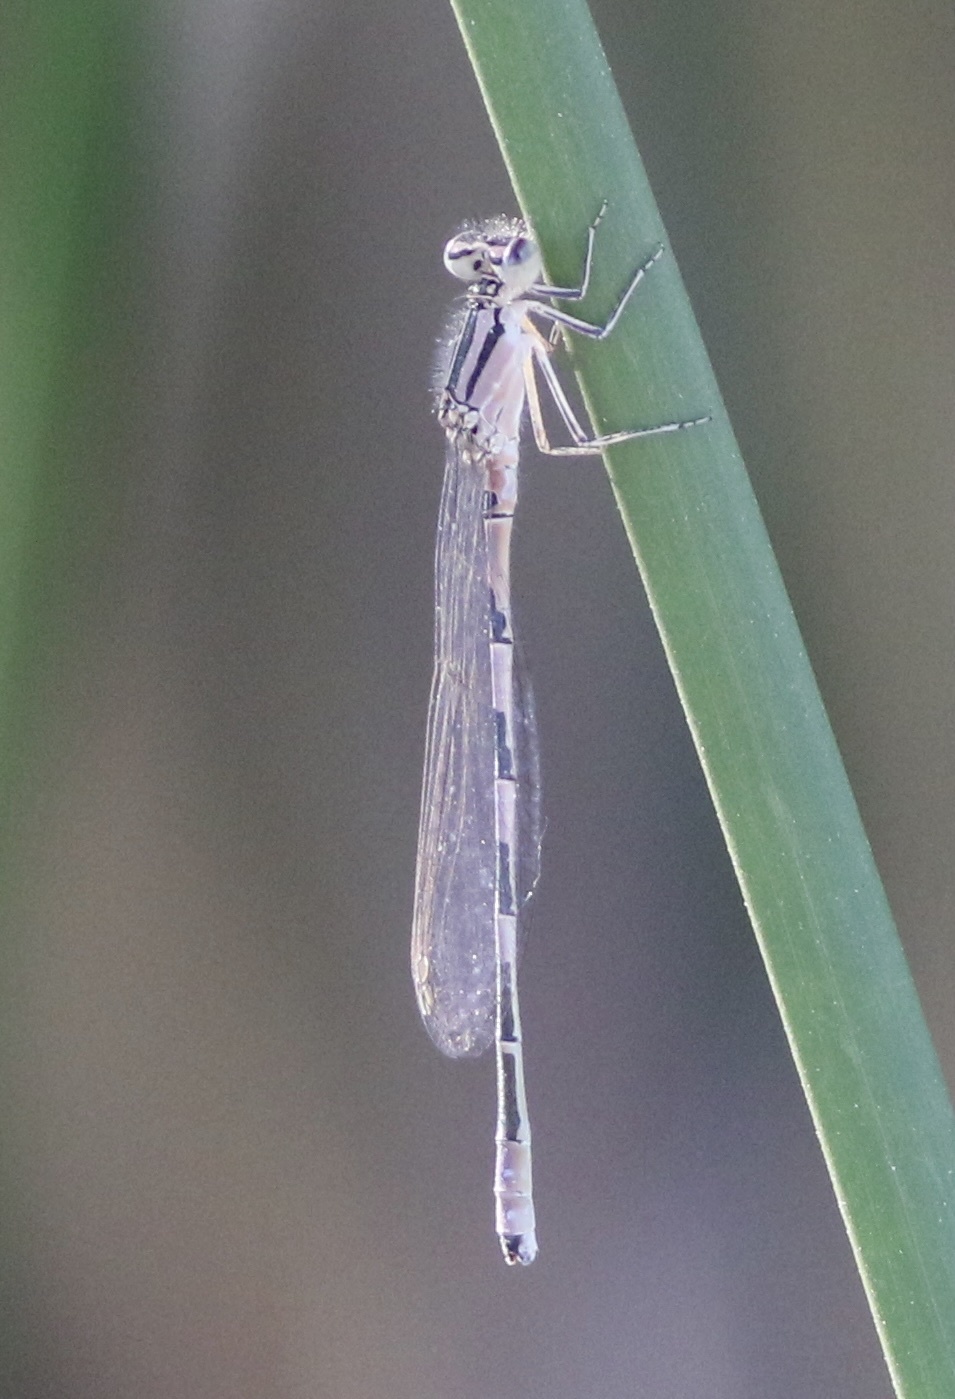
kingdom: Animalia
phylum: Arthropoda
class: Insecta
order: Odonata
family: Coenagrionidae
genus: Enallagma
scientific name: Enallagma carunculatum
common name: Tule bluet
